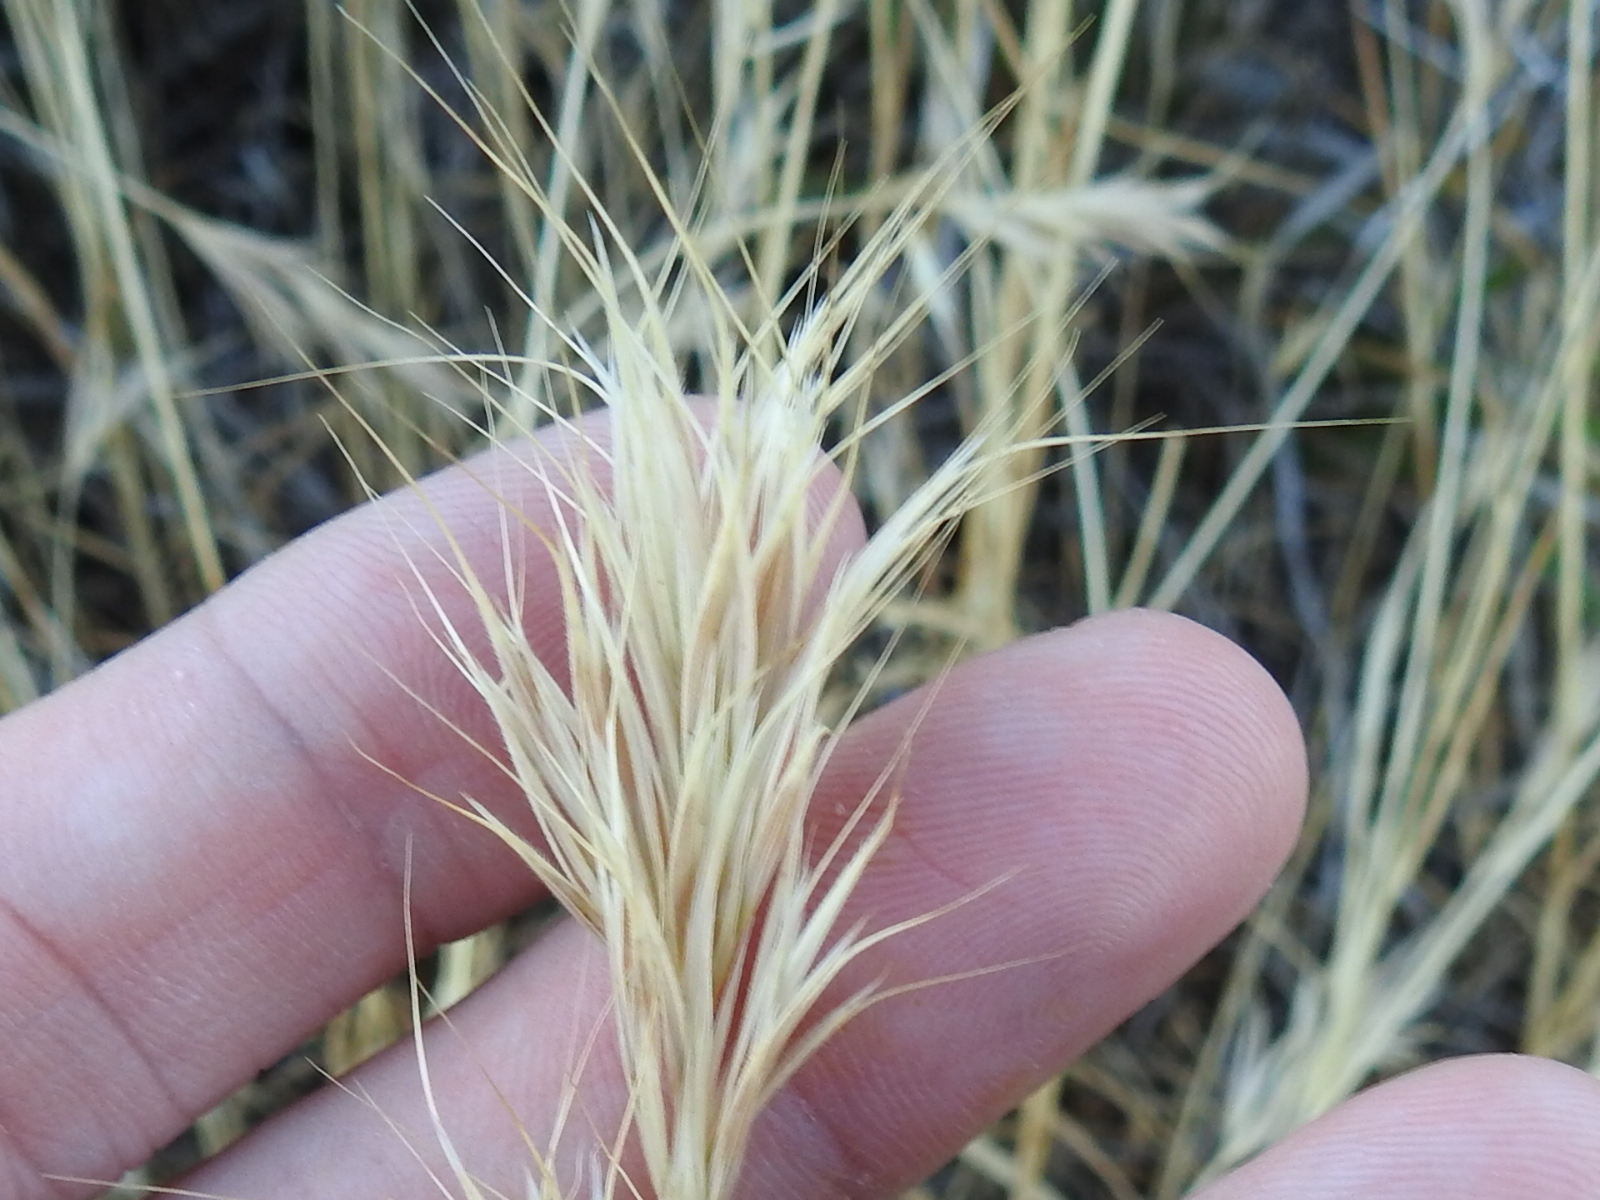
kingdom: Plantae
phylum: Tracheophyta
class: Liliopsida
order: Poales
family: Poaceae
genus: Bromus
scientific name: Bromus rubens
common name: Red brome
